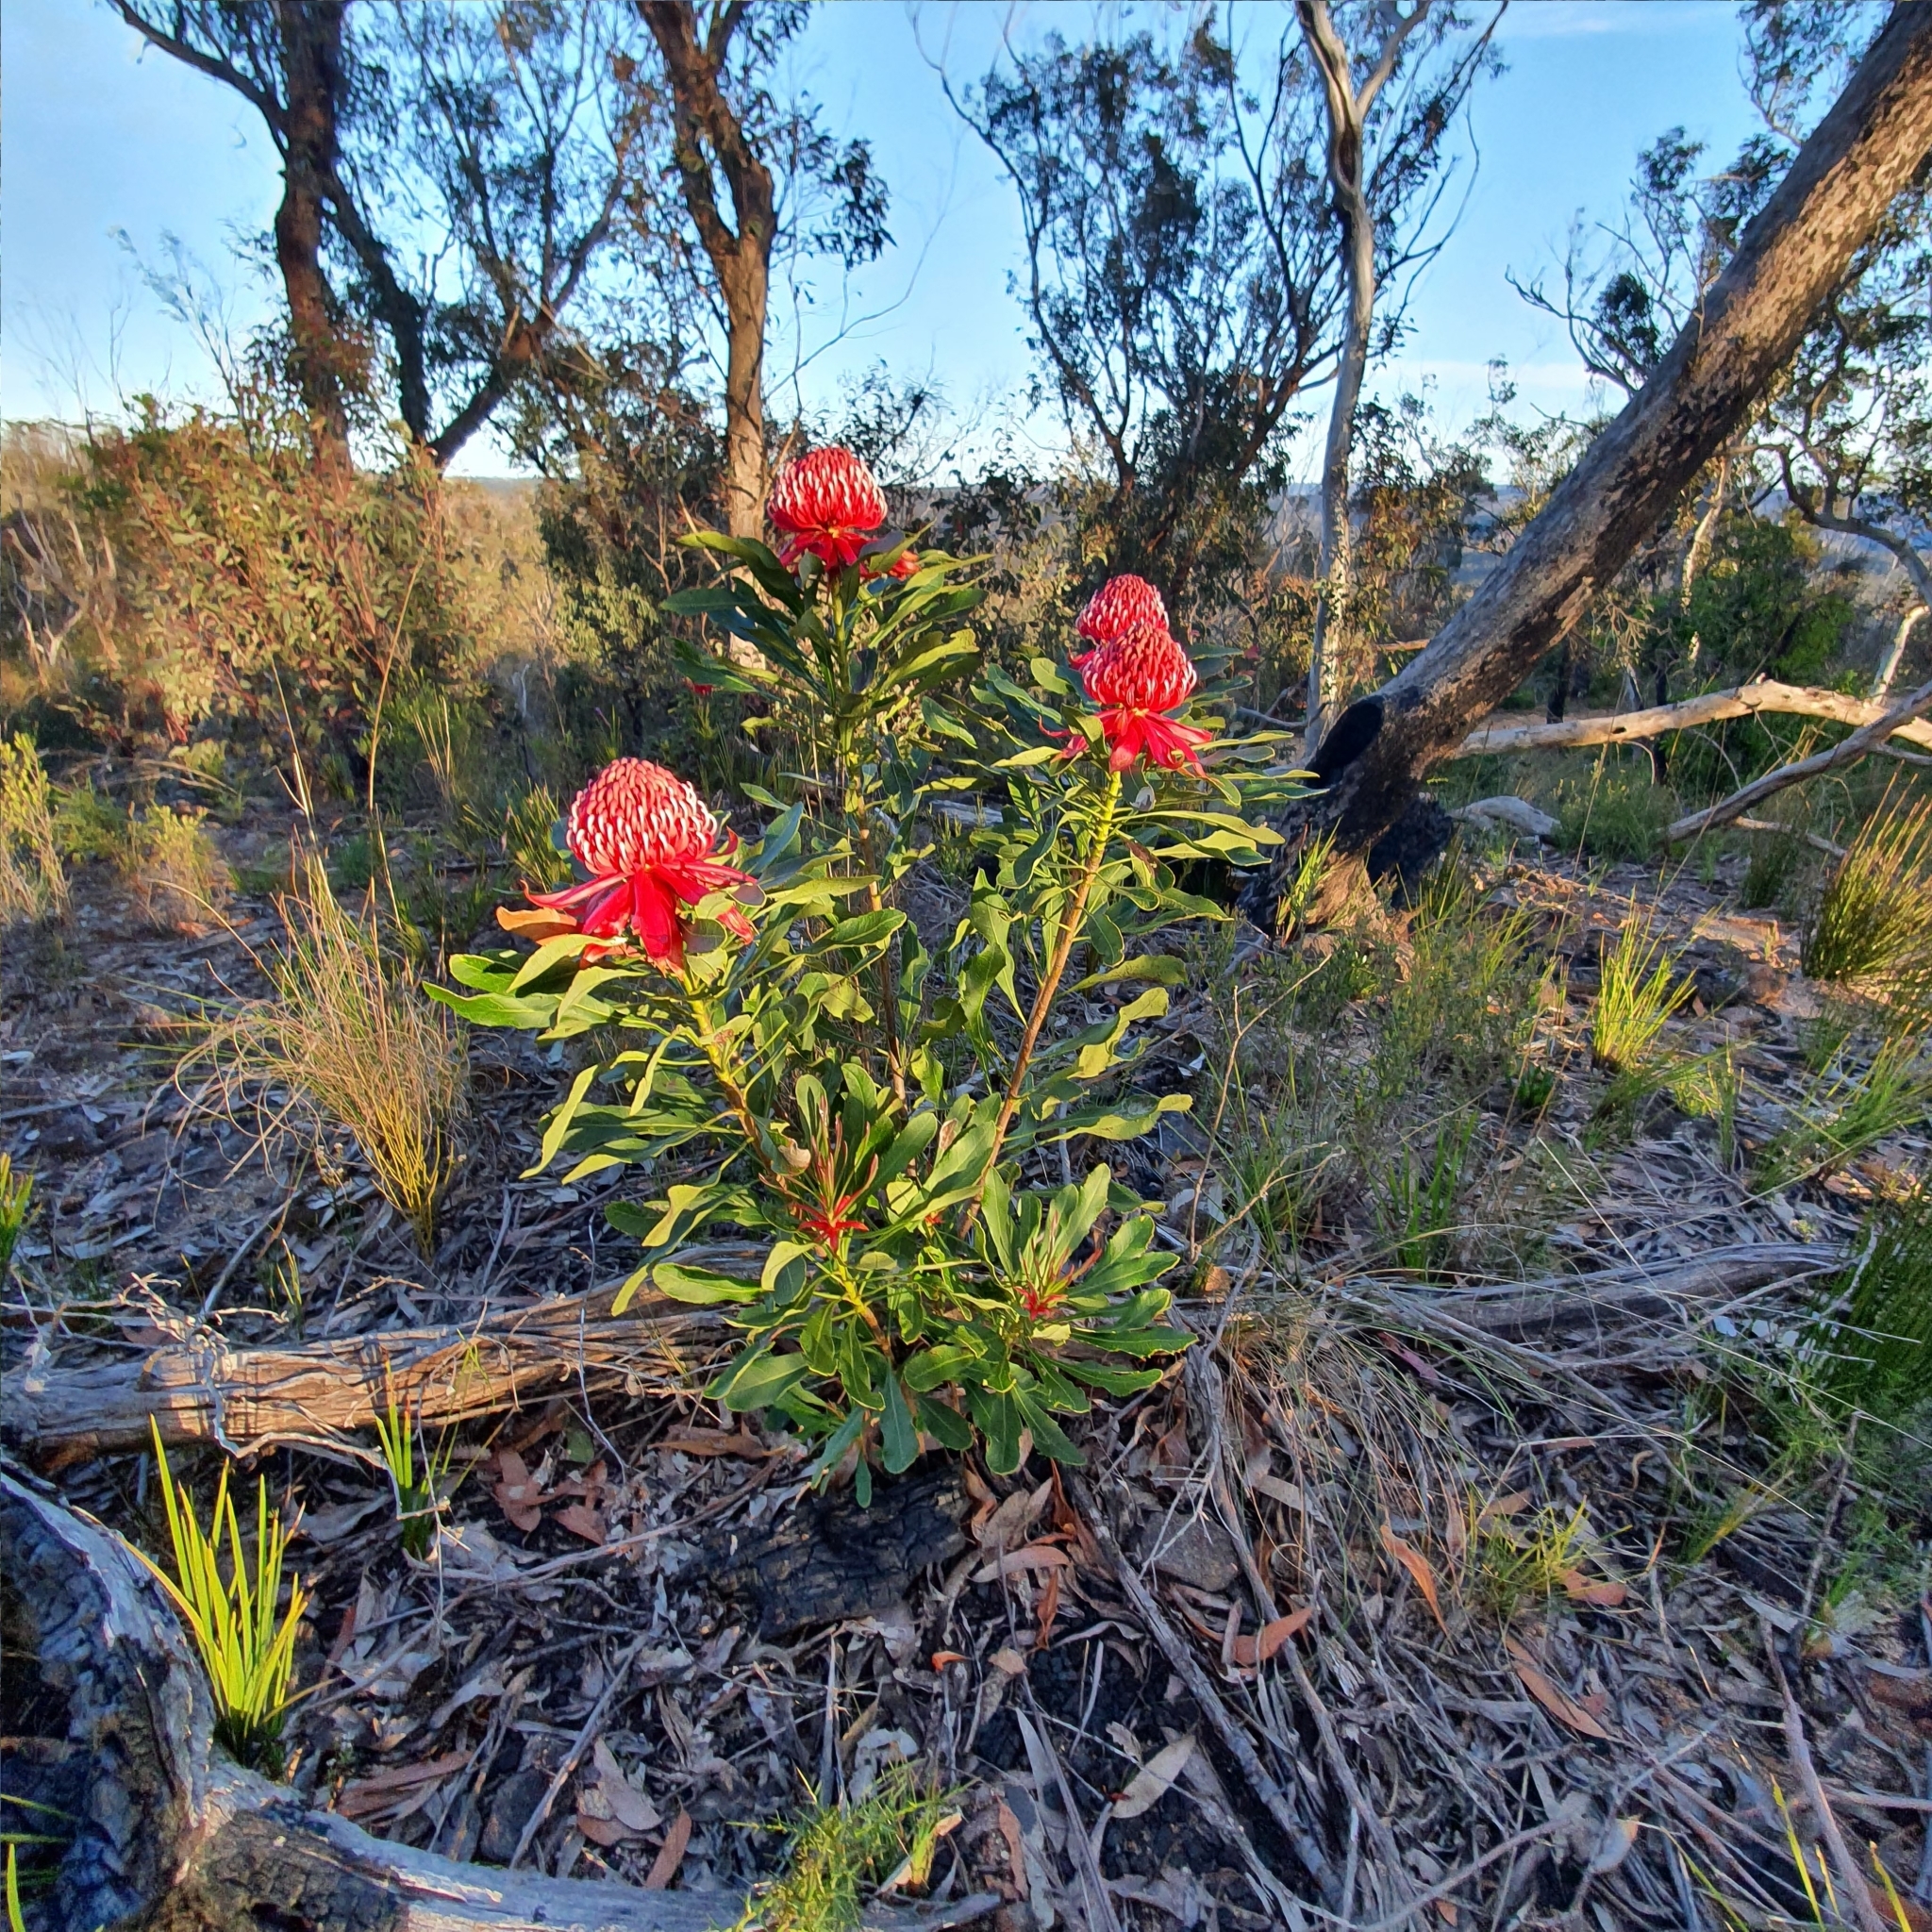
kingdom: Plantae
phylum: Tracheophyta
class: Magnoliopsida
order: Proteales
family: Proteaceae
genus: Telopea
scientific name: Telopea speciosissima
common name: New south wales waratah
